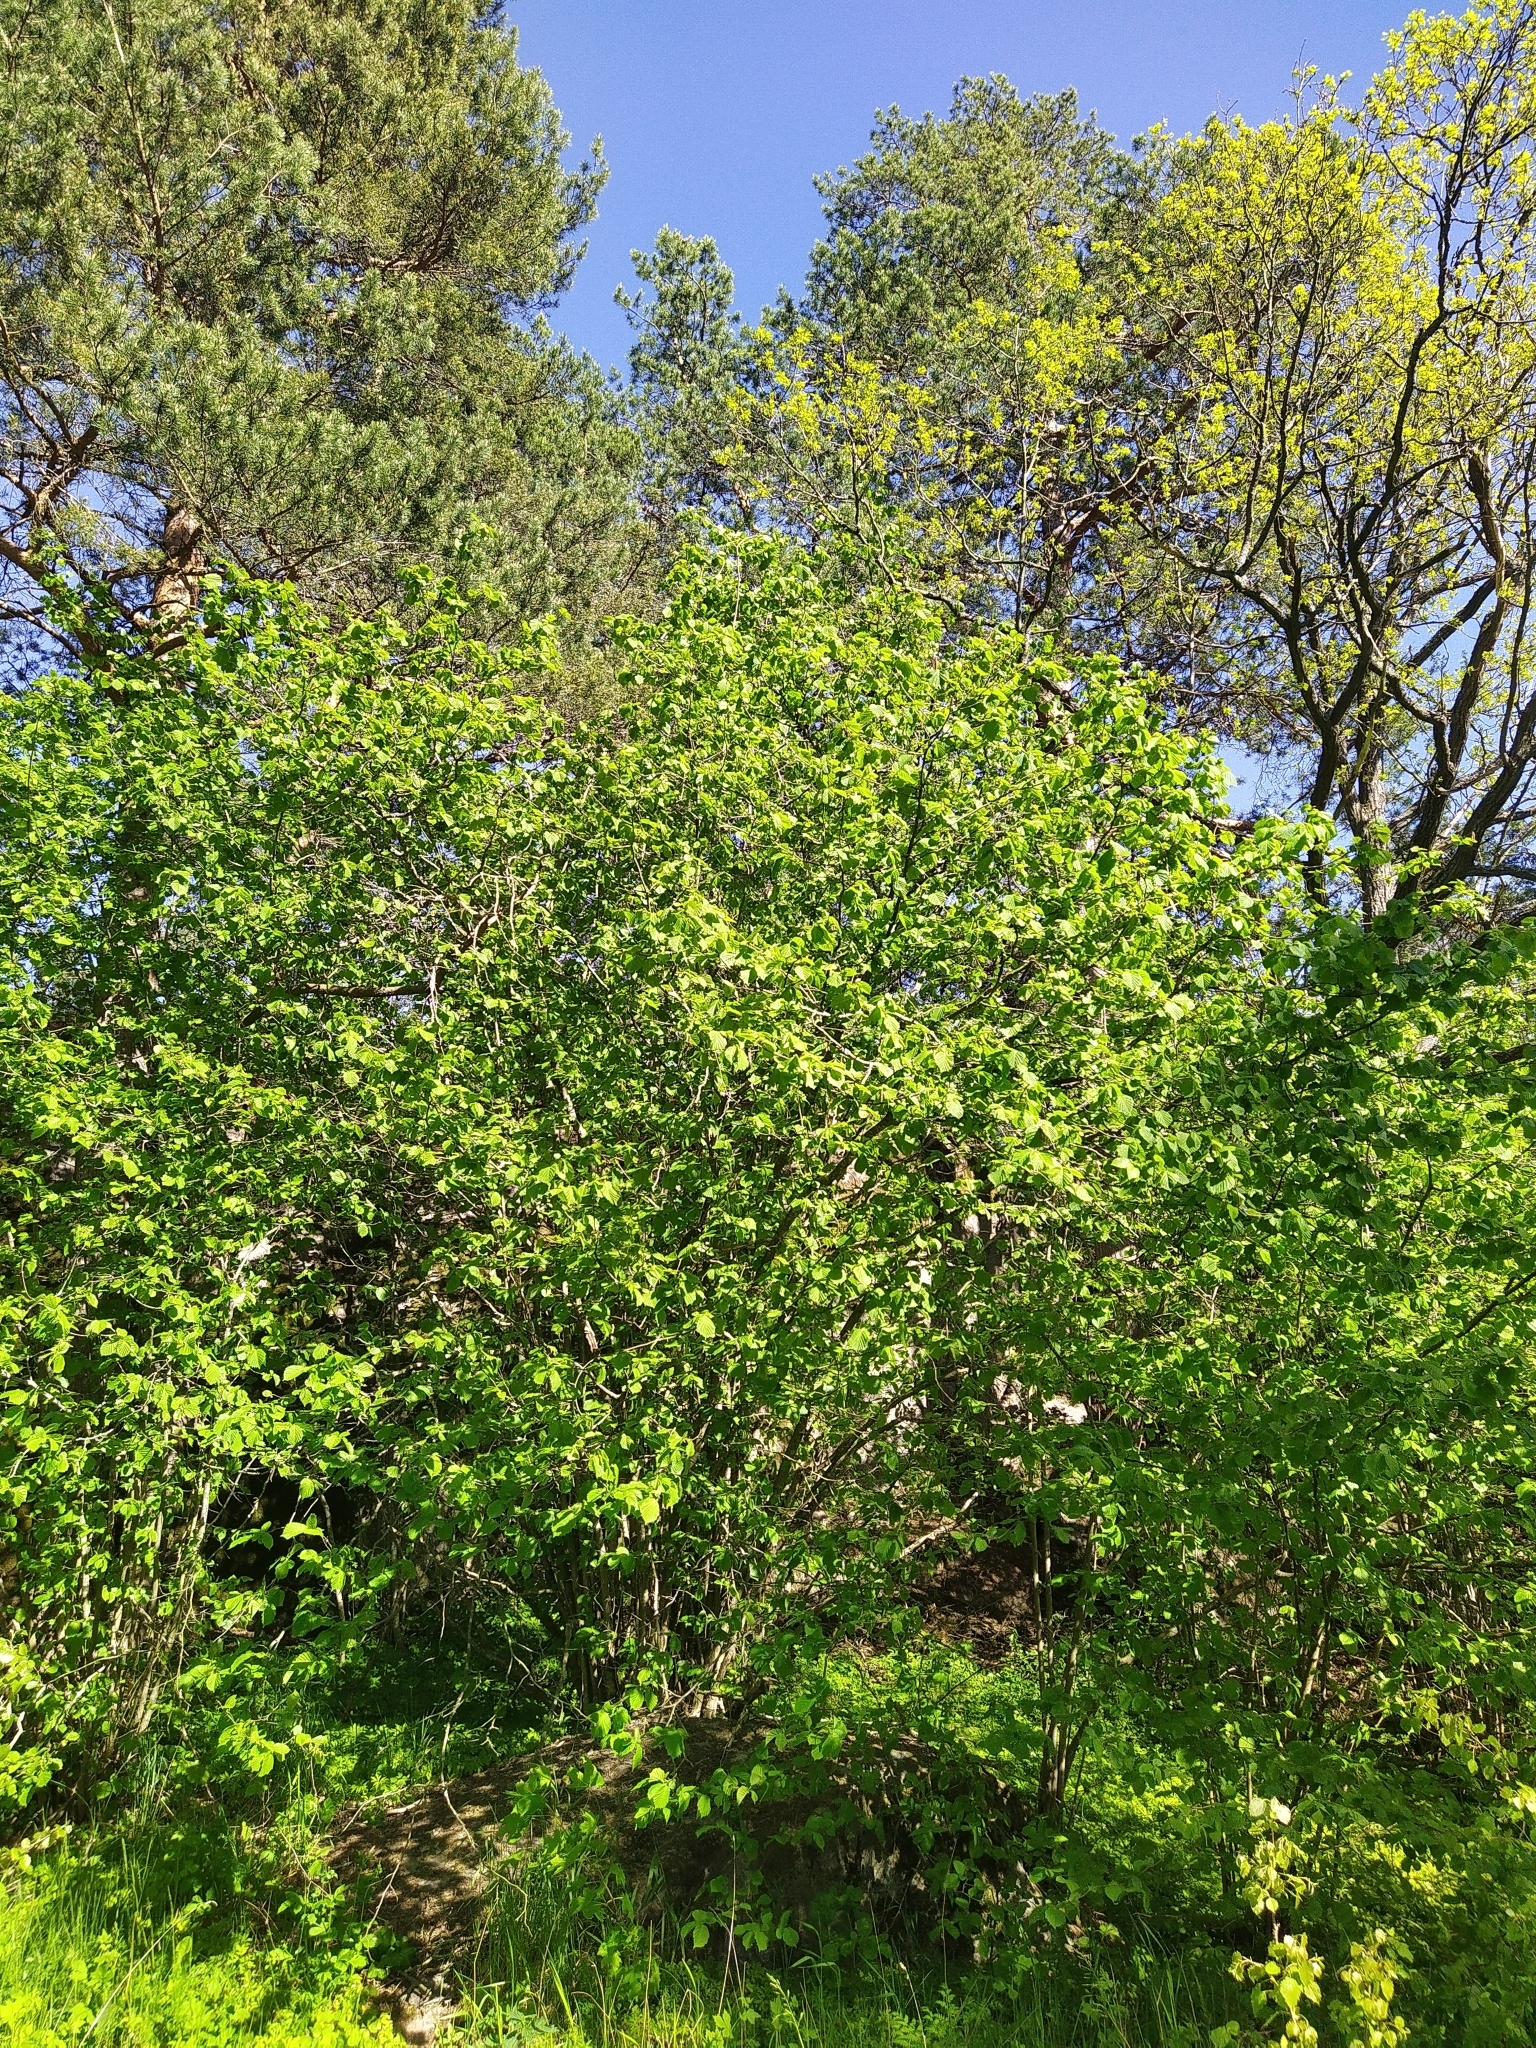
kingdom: Plantae
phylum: Tracheophyta
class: Magnoliopsida
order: Fagales
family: Betulaceae
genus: Corylus
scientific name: Corylus avellana
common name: European hazel
